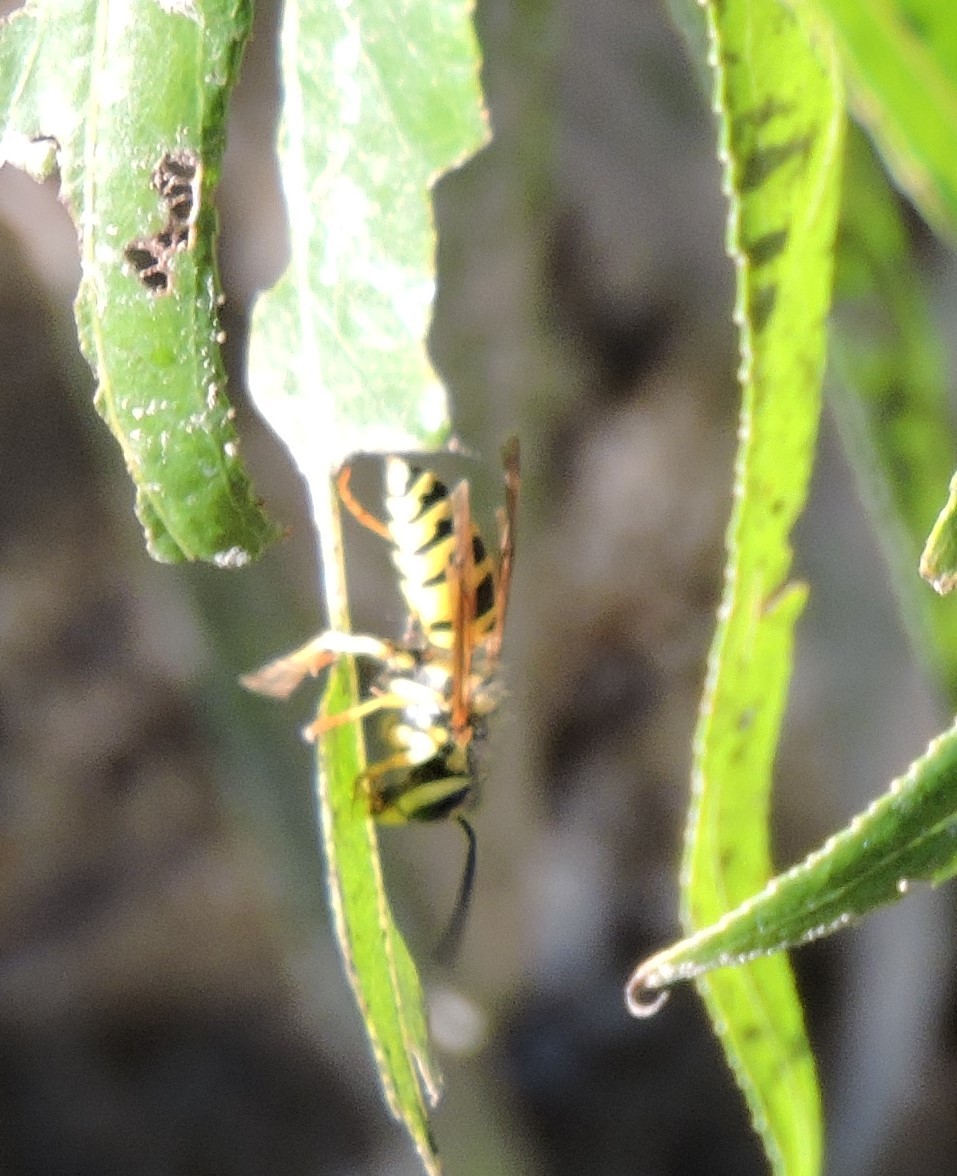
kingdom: Animalia
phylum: Arthropoda
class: Insecta
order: Hymenoptera
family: Vespidae
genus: Vespula
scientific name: Vespula
